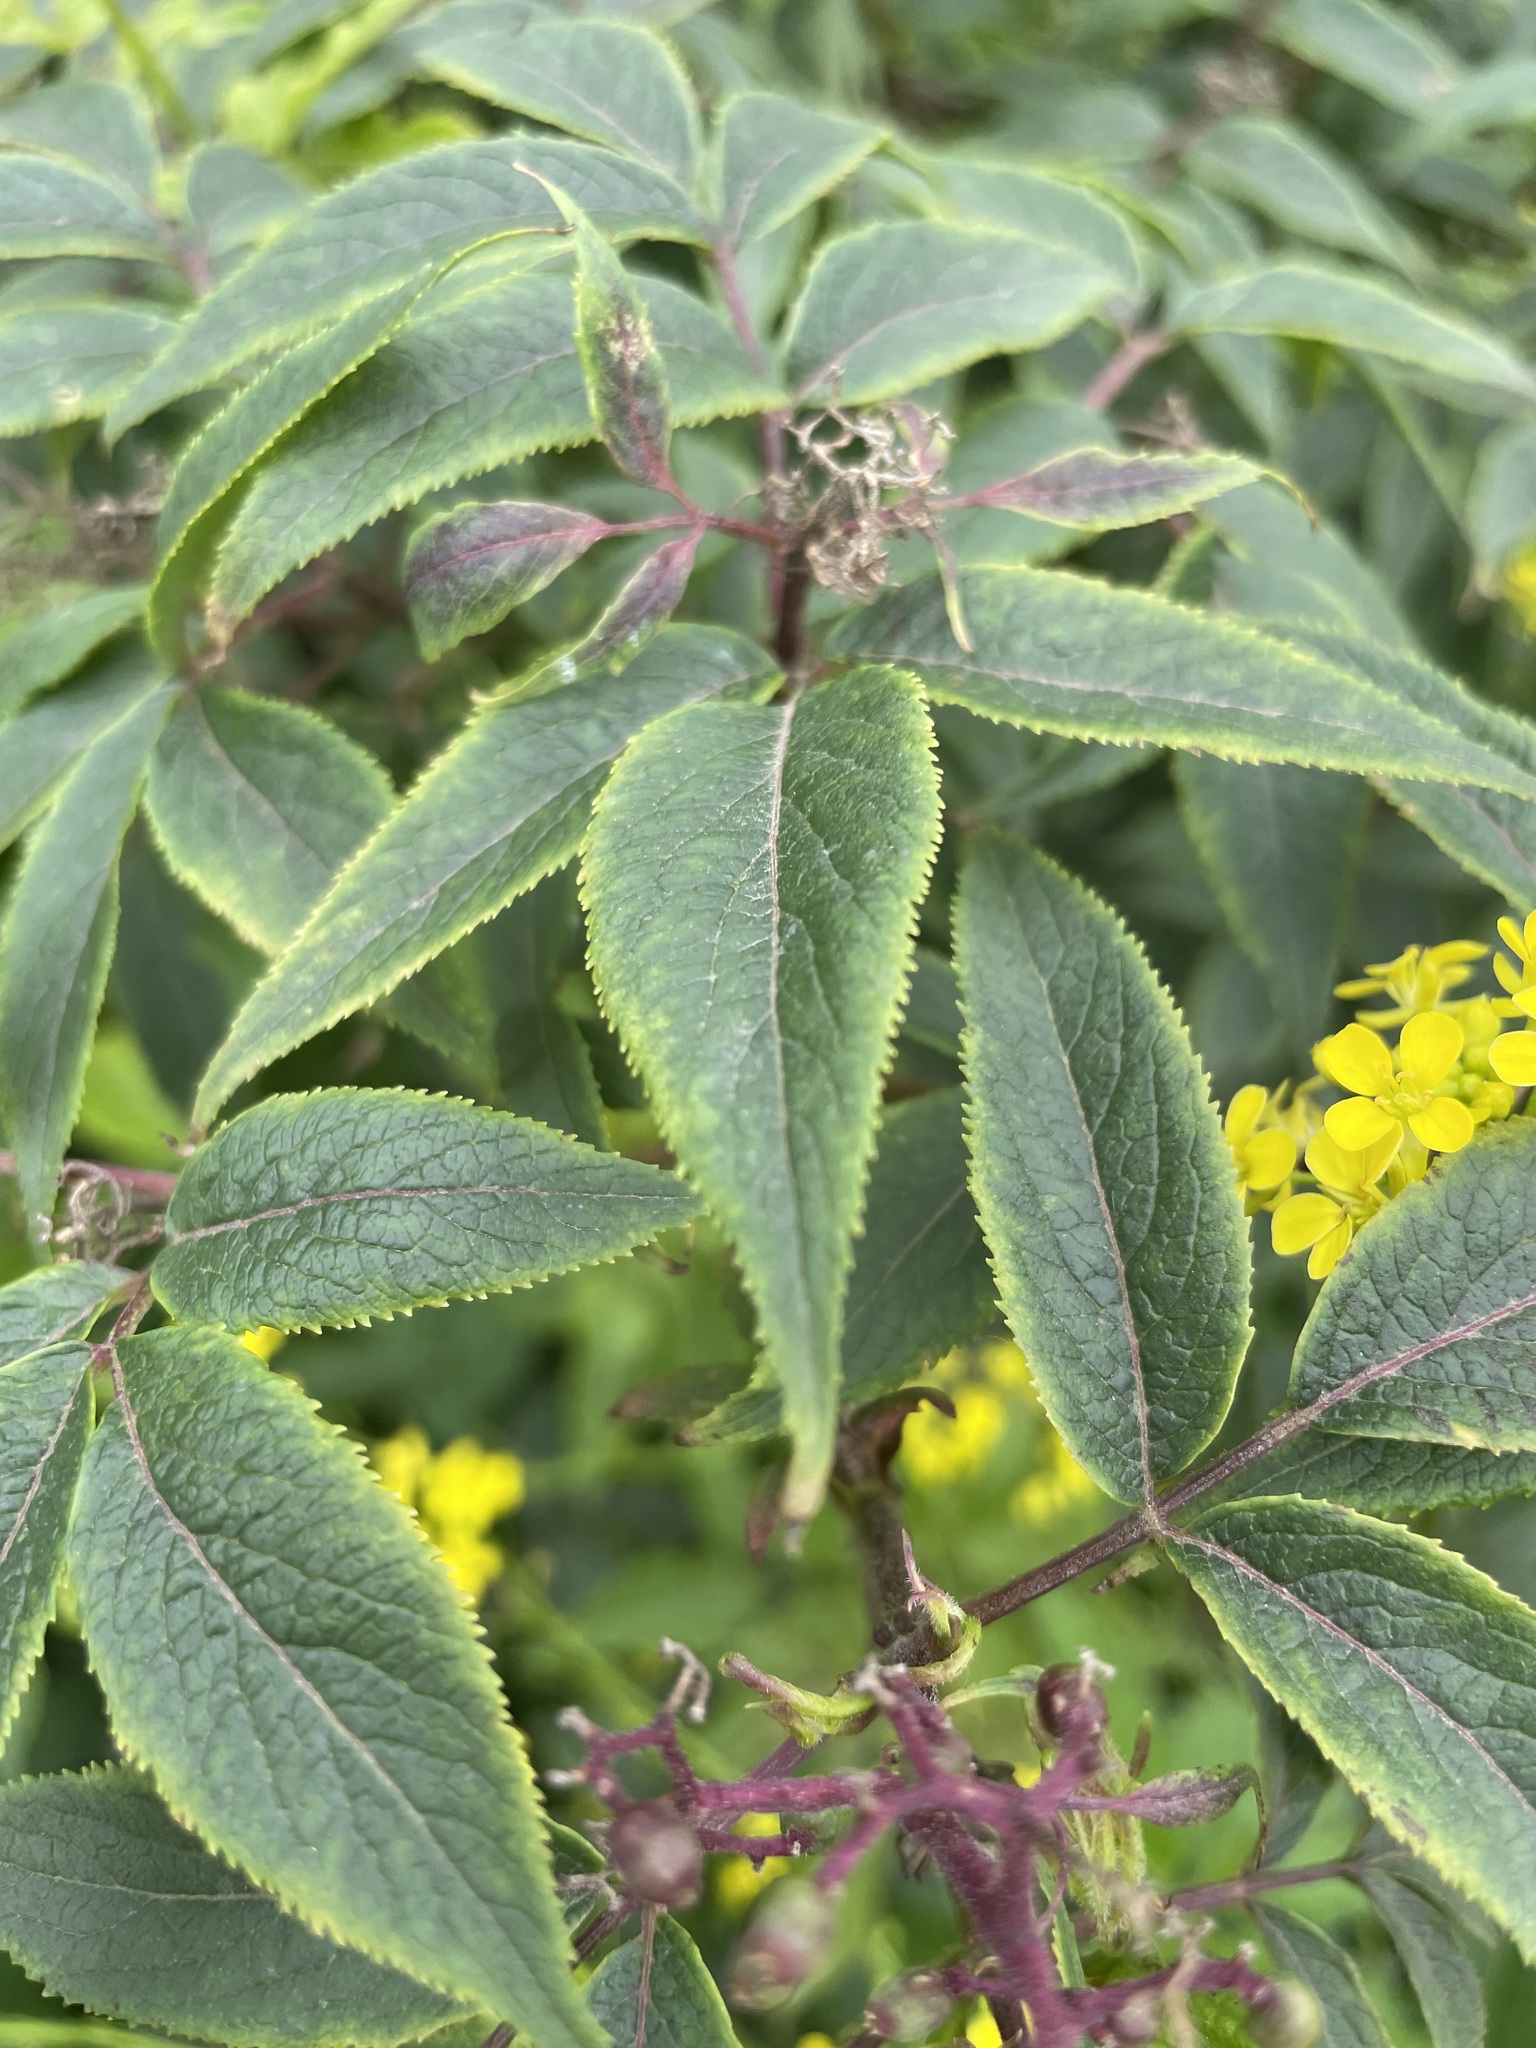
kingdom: Plantae
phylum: Tracheophyta
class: Magnoliopsida
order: Dipsacales
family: Viburnaceae
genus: Sambucus
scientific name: Sambucus racemosa
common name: Red-berried elder
